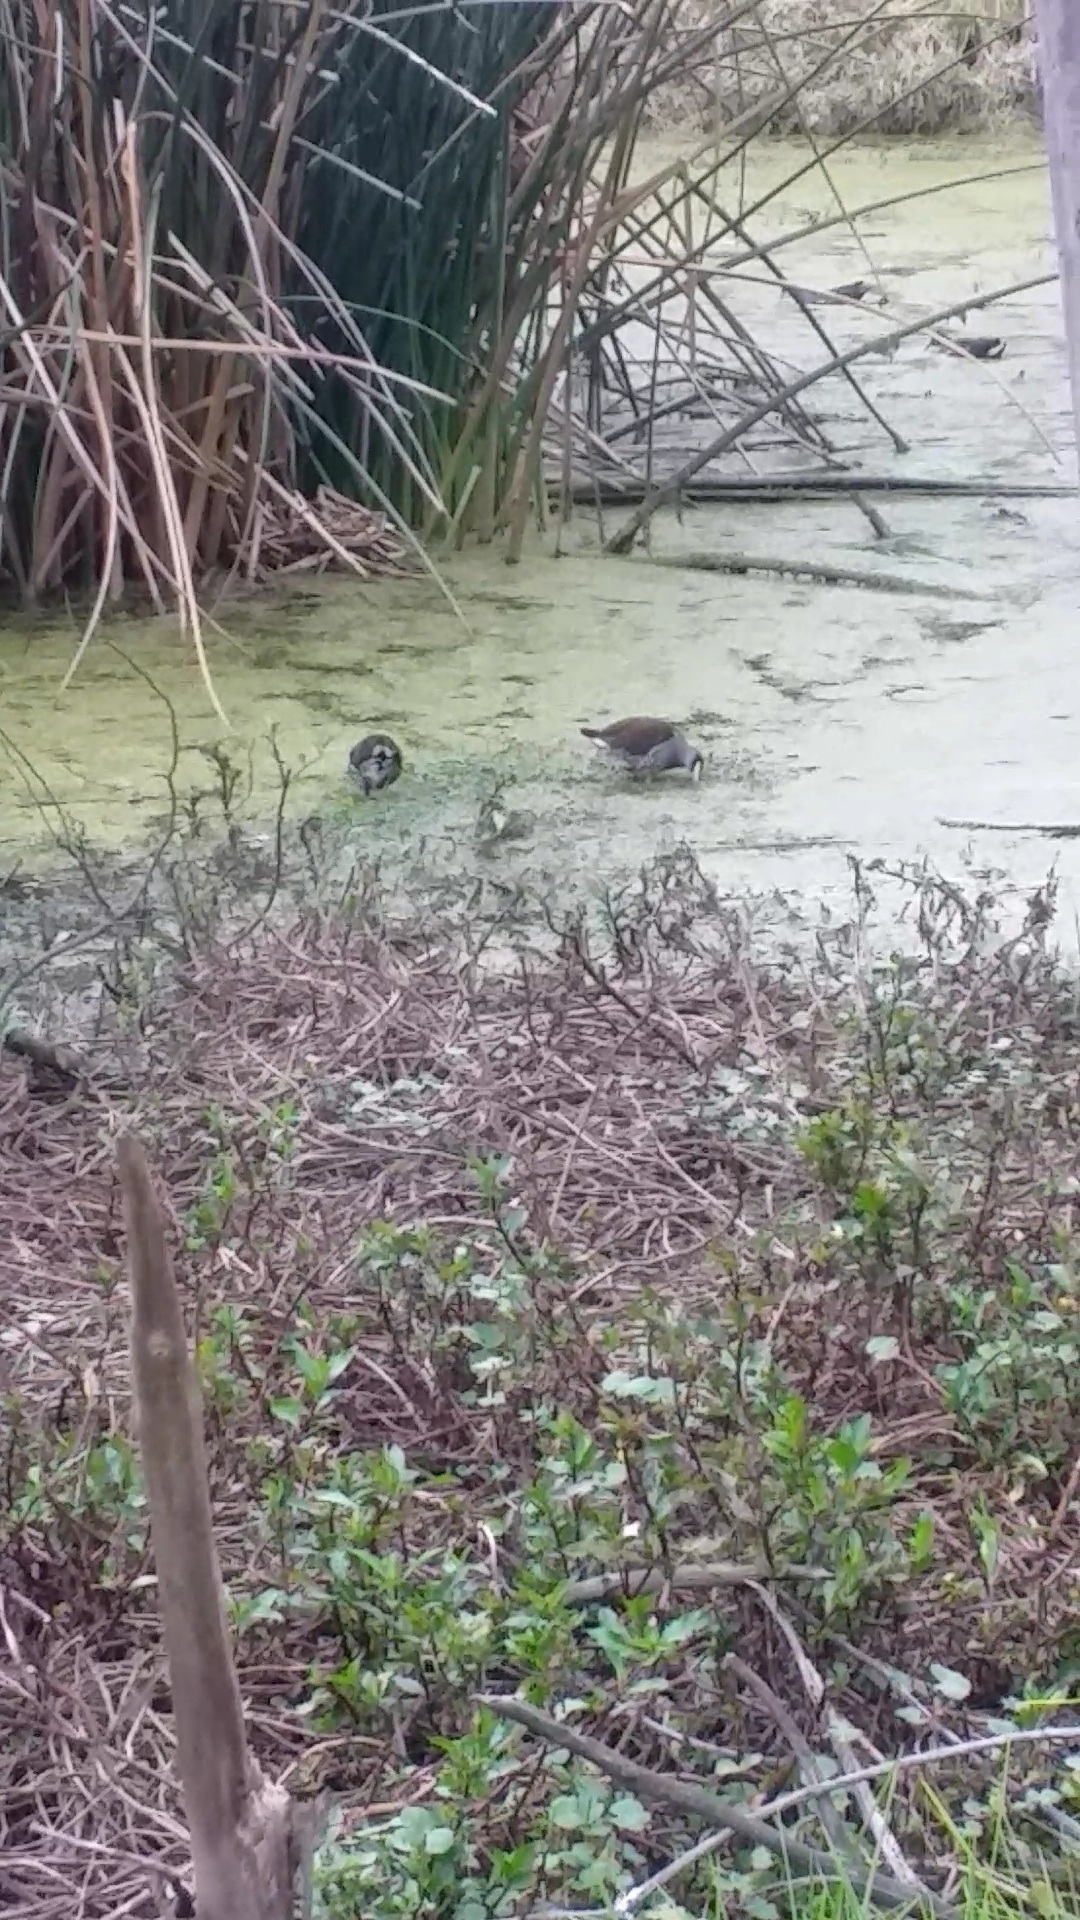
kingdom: Animalia
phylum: Chordata
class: Aves
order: Gruiformes
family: Rallidae
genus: Gallinula
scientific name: Gallinula melanops
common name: Spot-flanked gallinule
